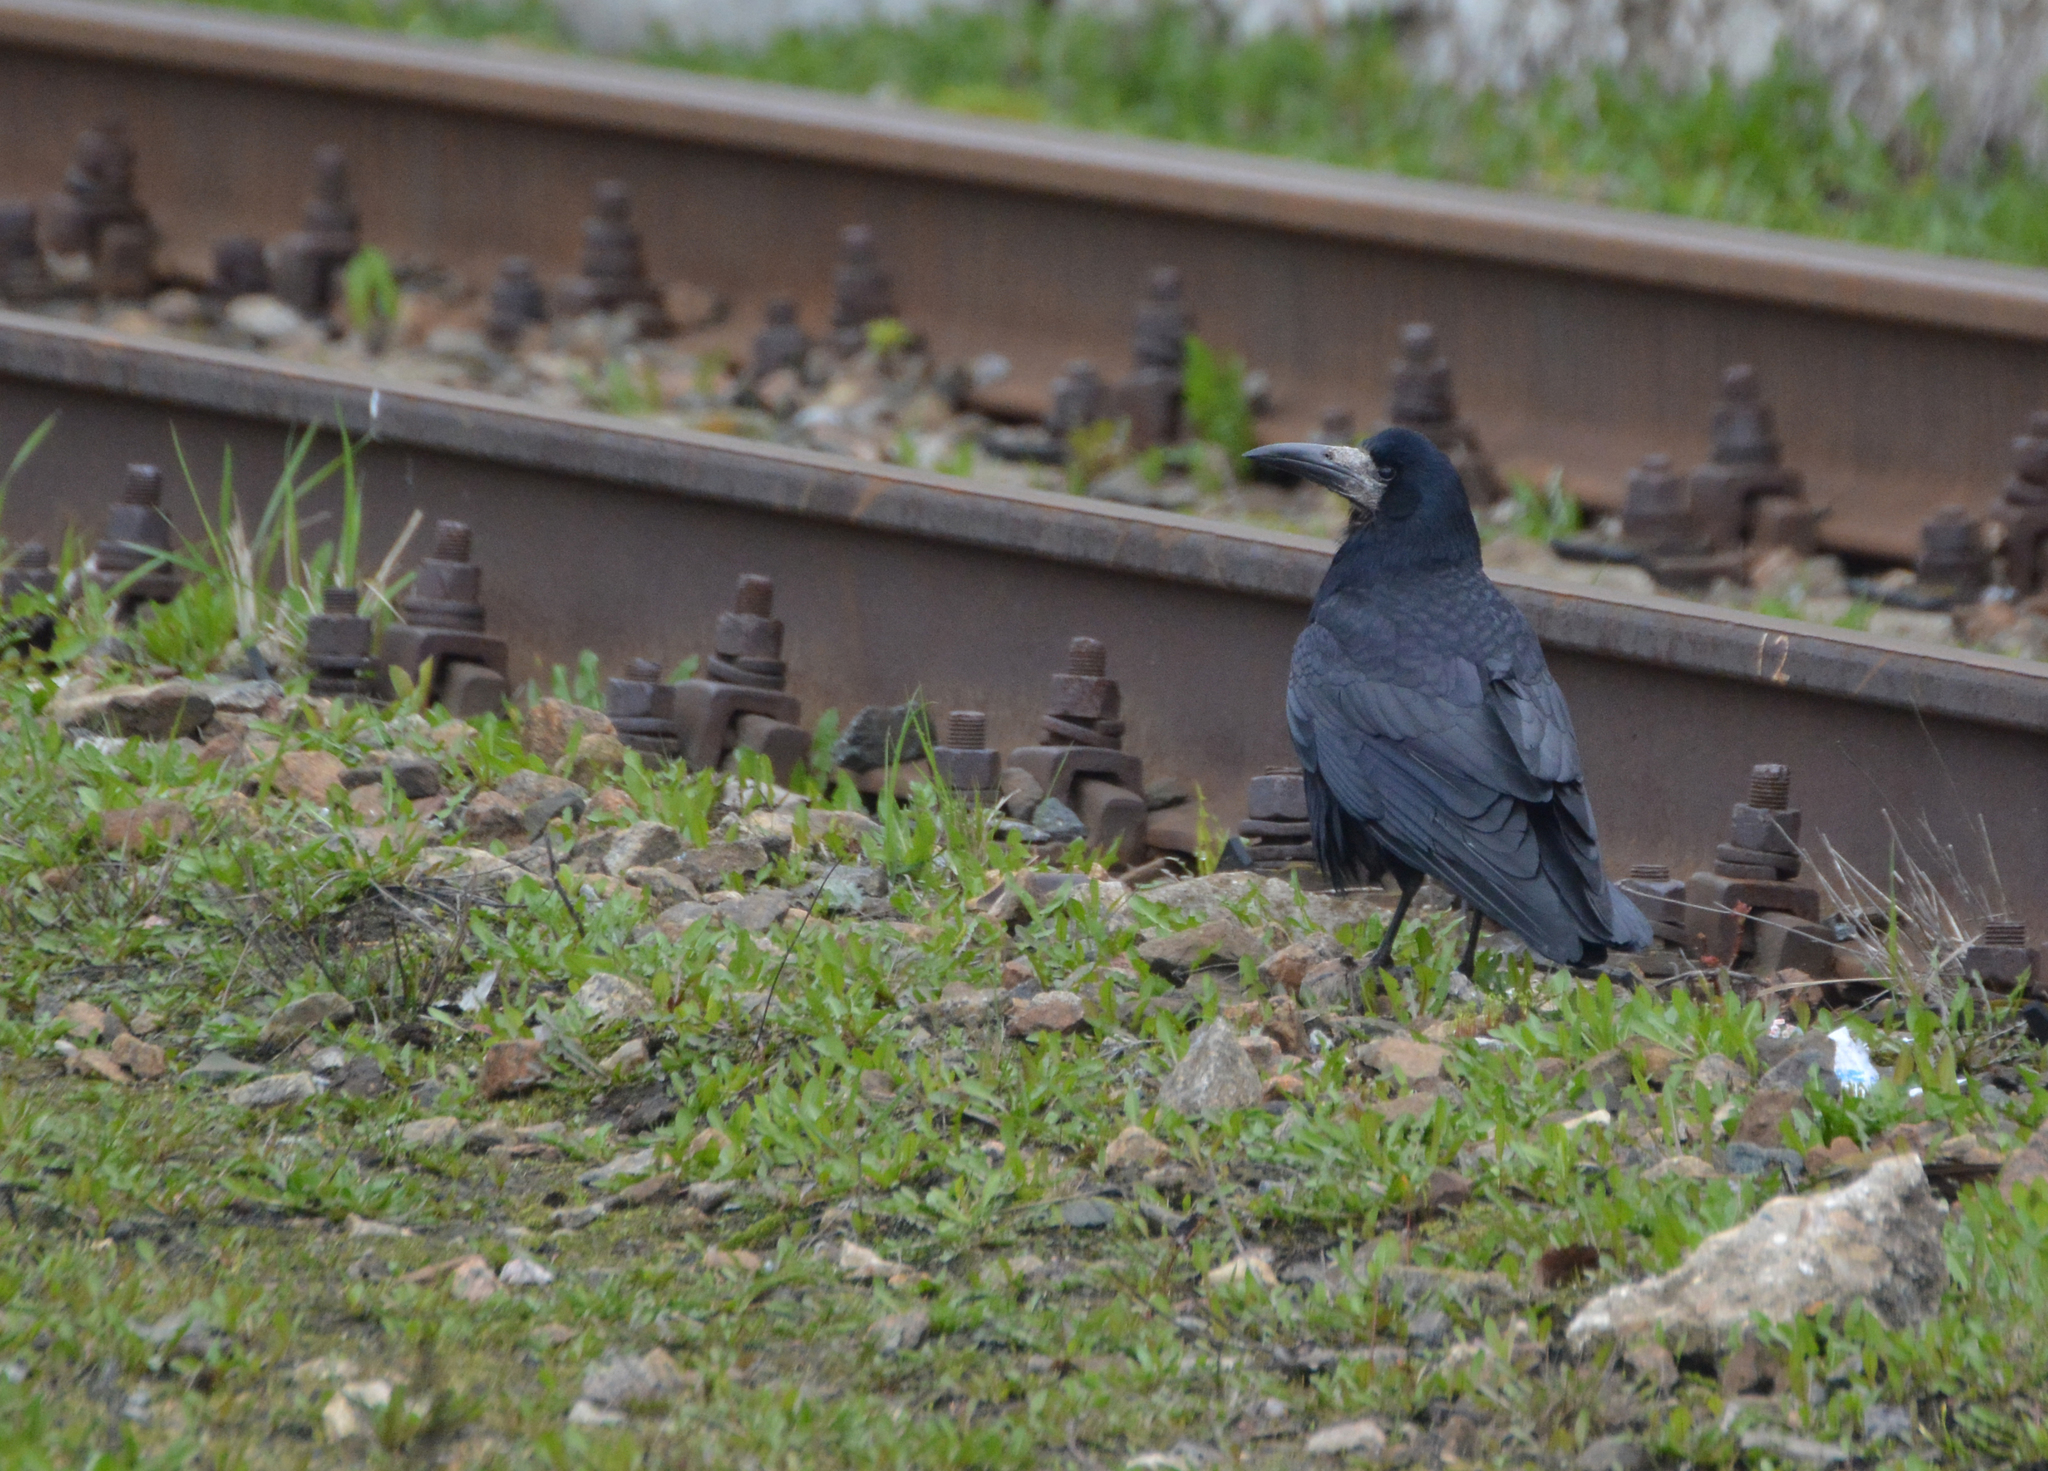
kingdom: Animalia
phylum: Chordata
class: Aves
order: Passeriformes
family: Corvidae
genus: Corvus
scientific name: Corvus frugilegus
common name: Rook
